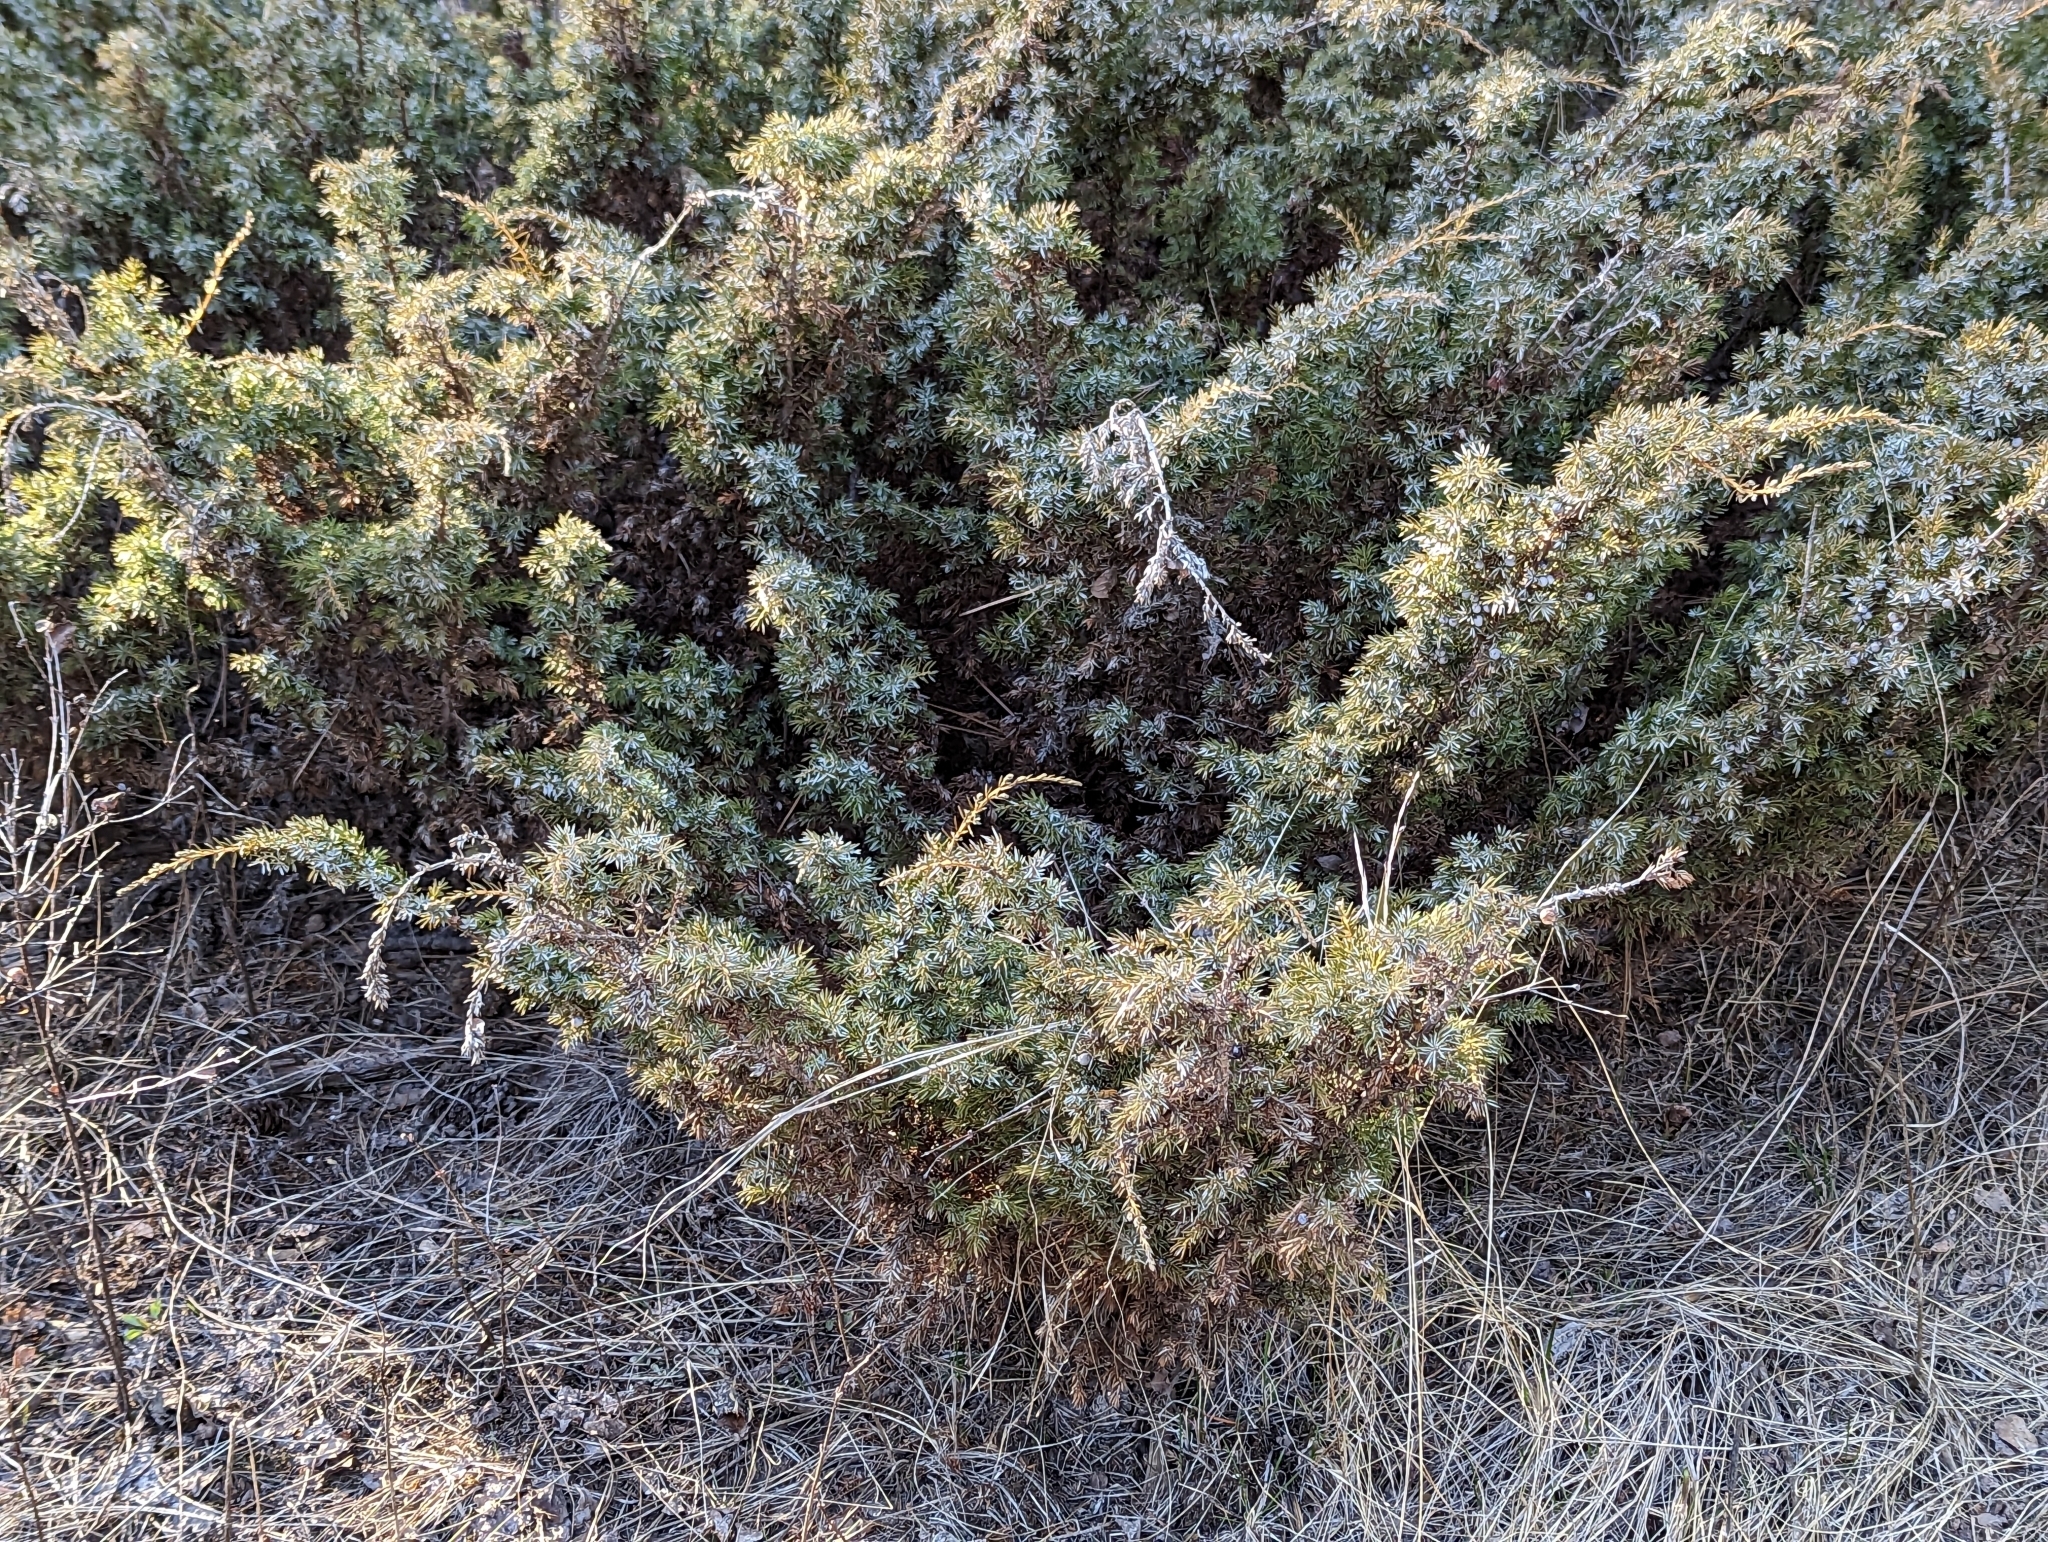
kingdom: Plantae
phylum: Tracheophyta
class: Pinopsida
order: Pinales
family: Cupressaceae
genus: Juniperus
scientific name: Juniperus communis
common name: Common juniper
